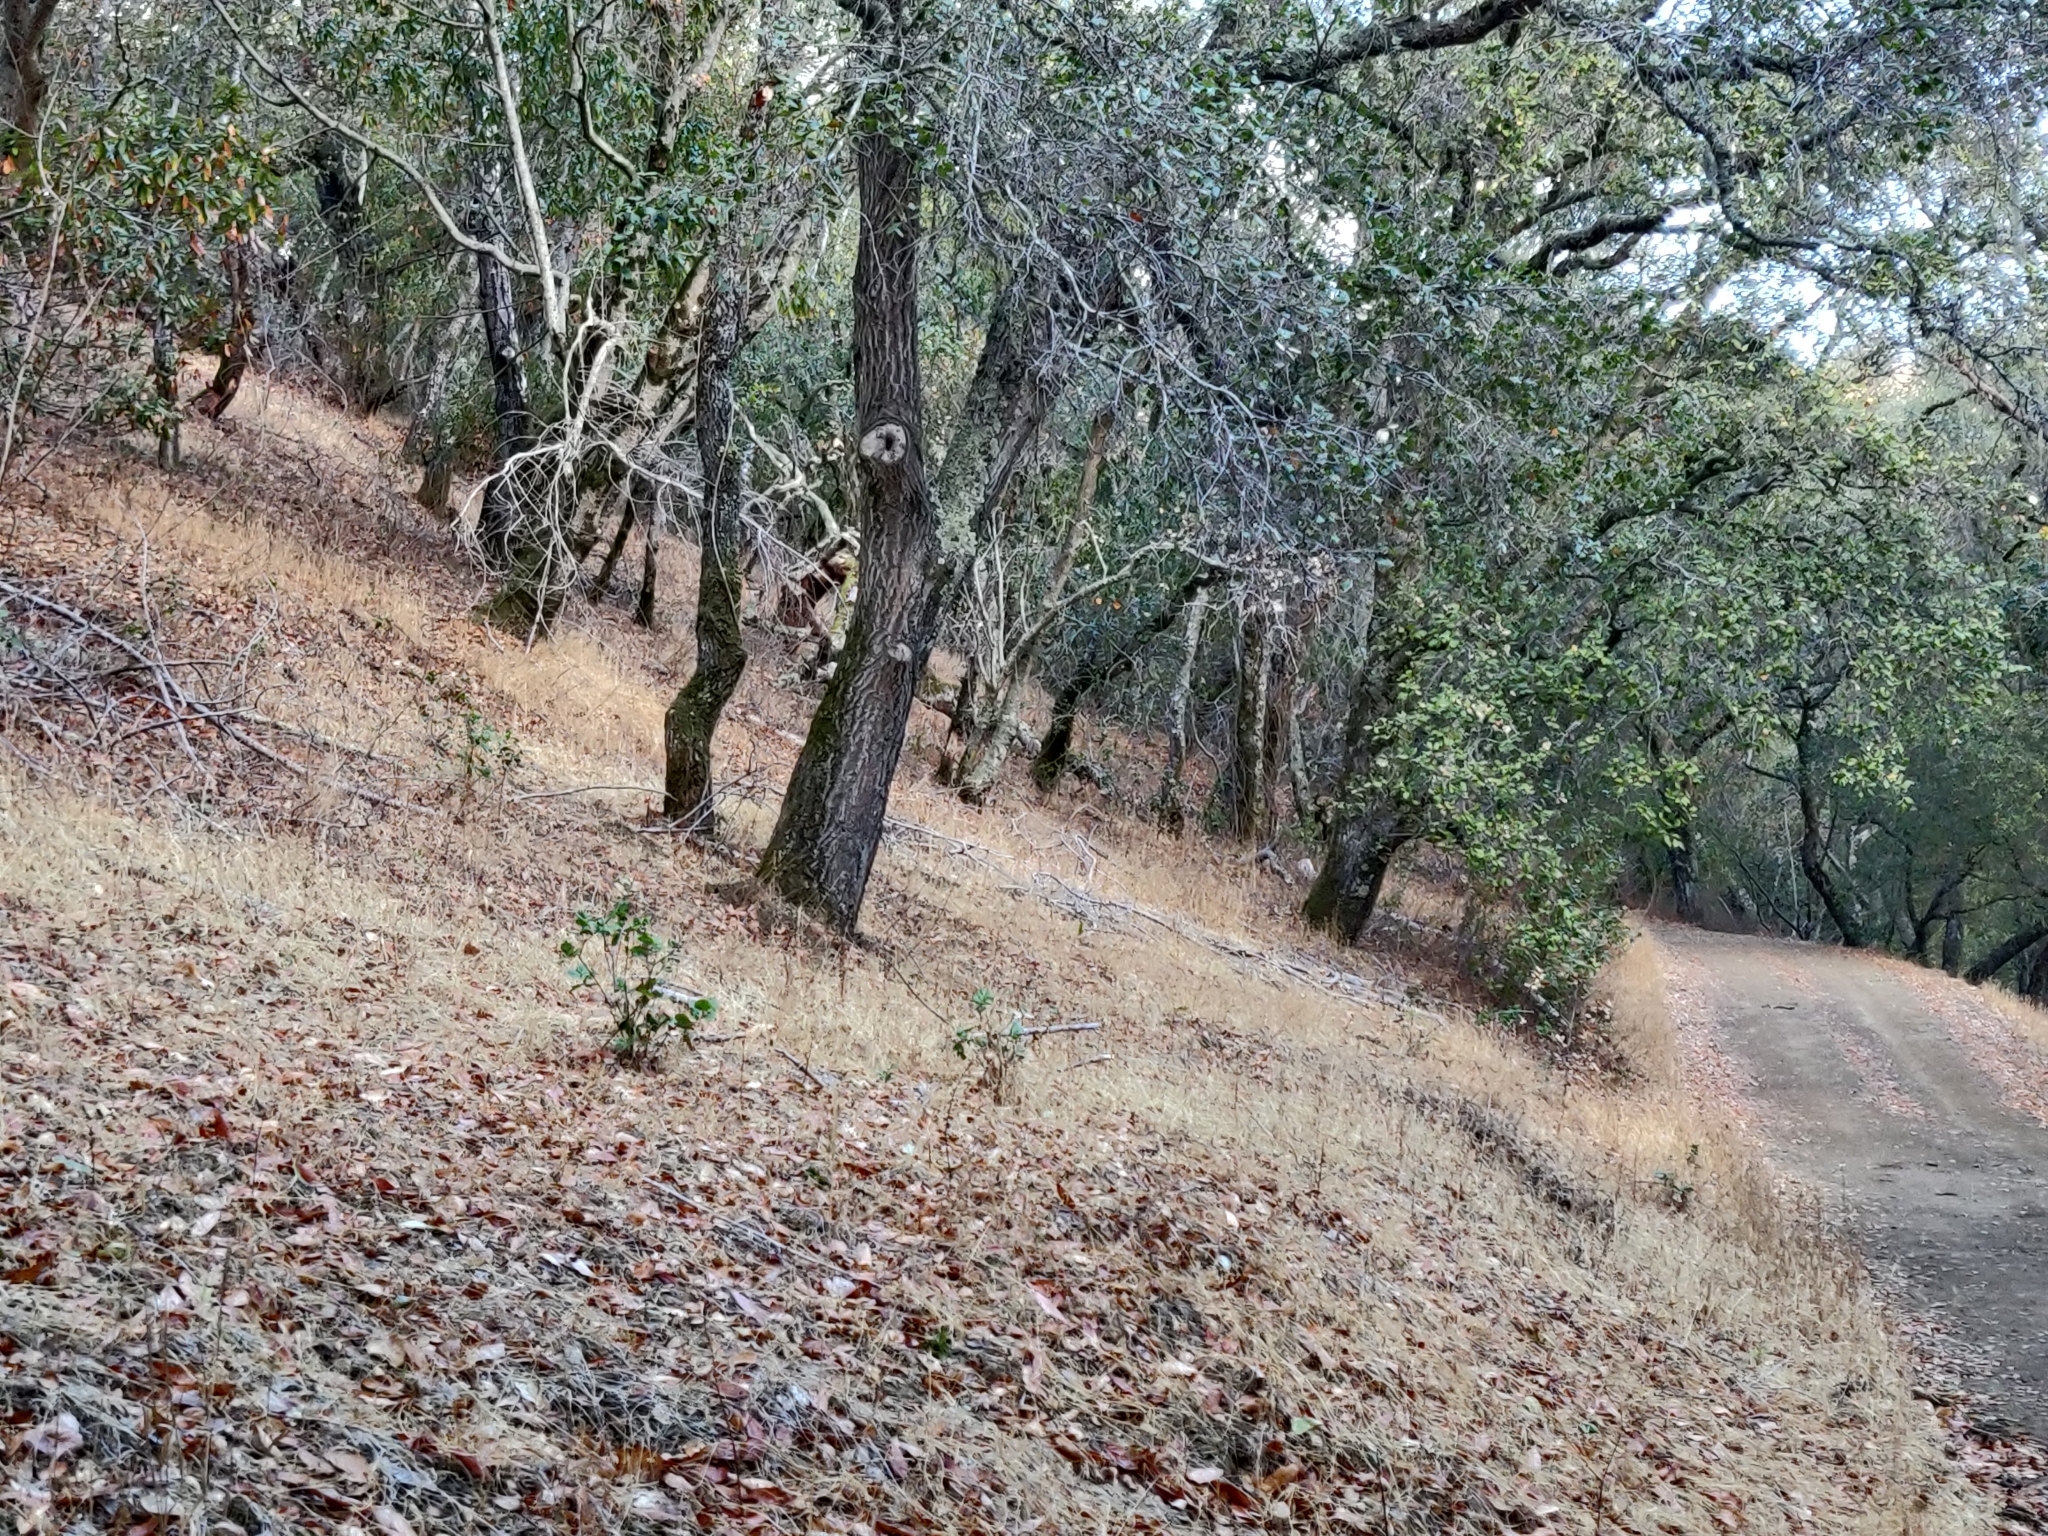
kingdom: Animalia
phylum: Chordata
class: Mammalia
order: Carnivora
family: Felidae
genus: Lynx
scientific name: Lynx rufus
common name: Bobcat
